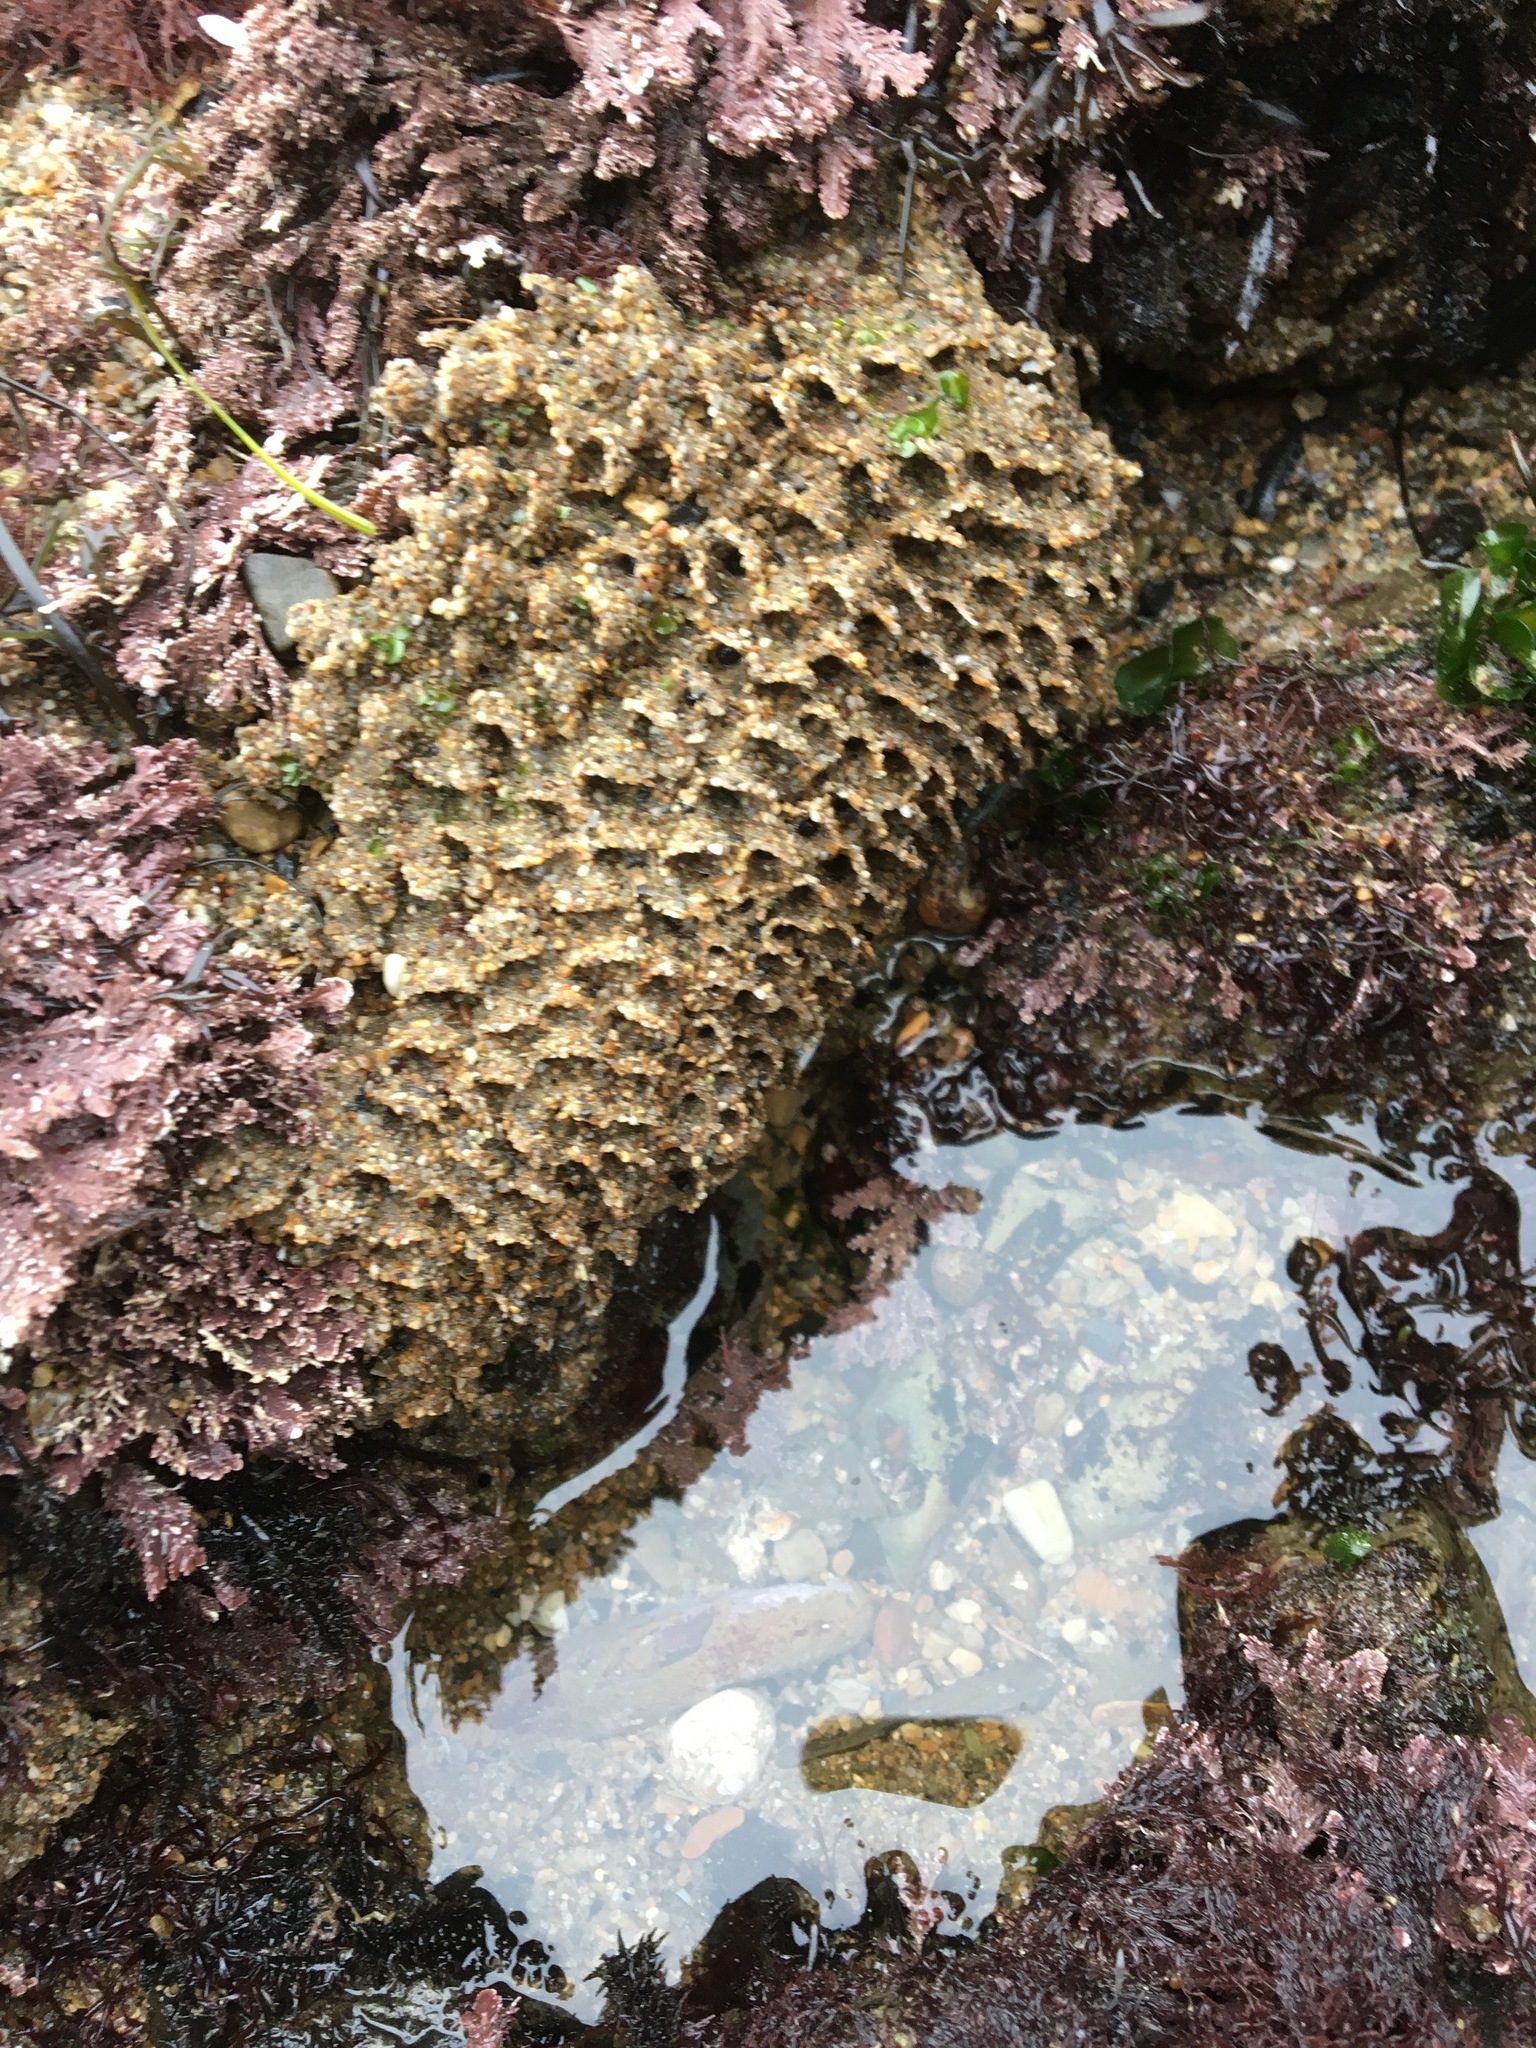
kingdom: Animalia
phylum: Annelida
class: Polychaeta
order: Sabellida
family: Sabellariidae
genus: Phragmatopoma
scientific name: Phragmatopoma californica
